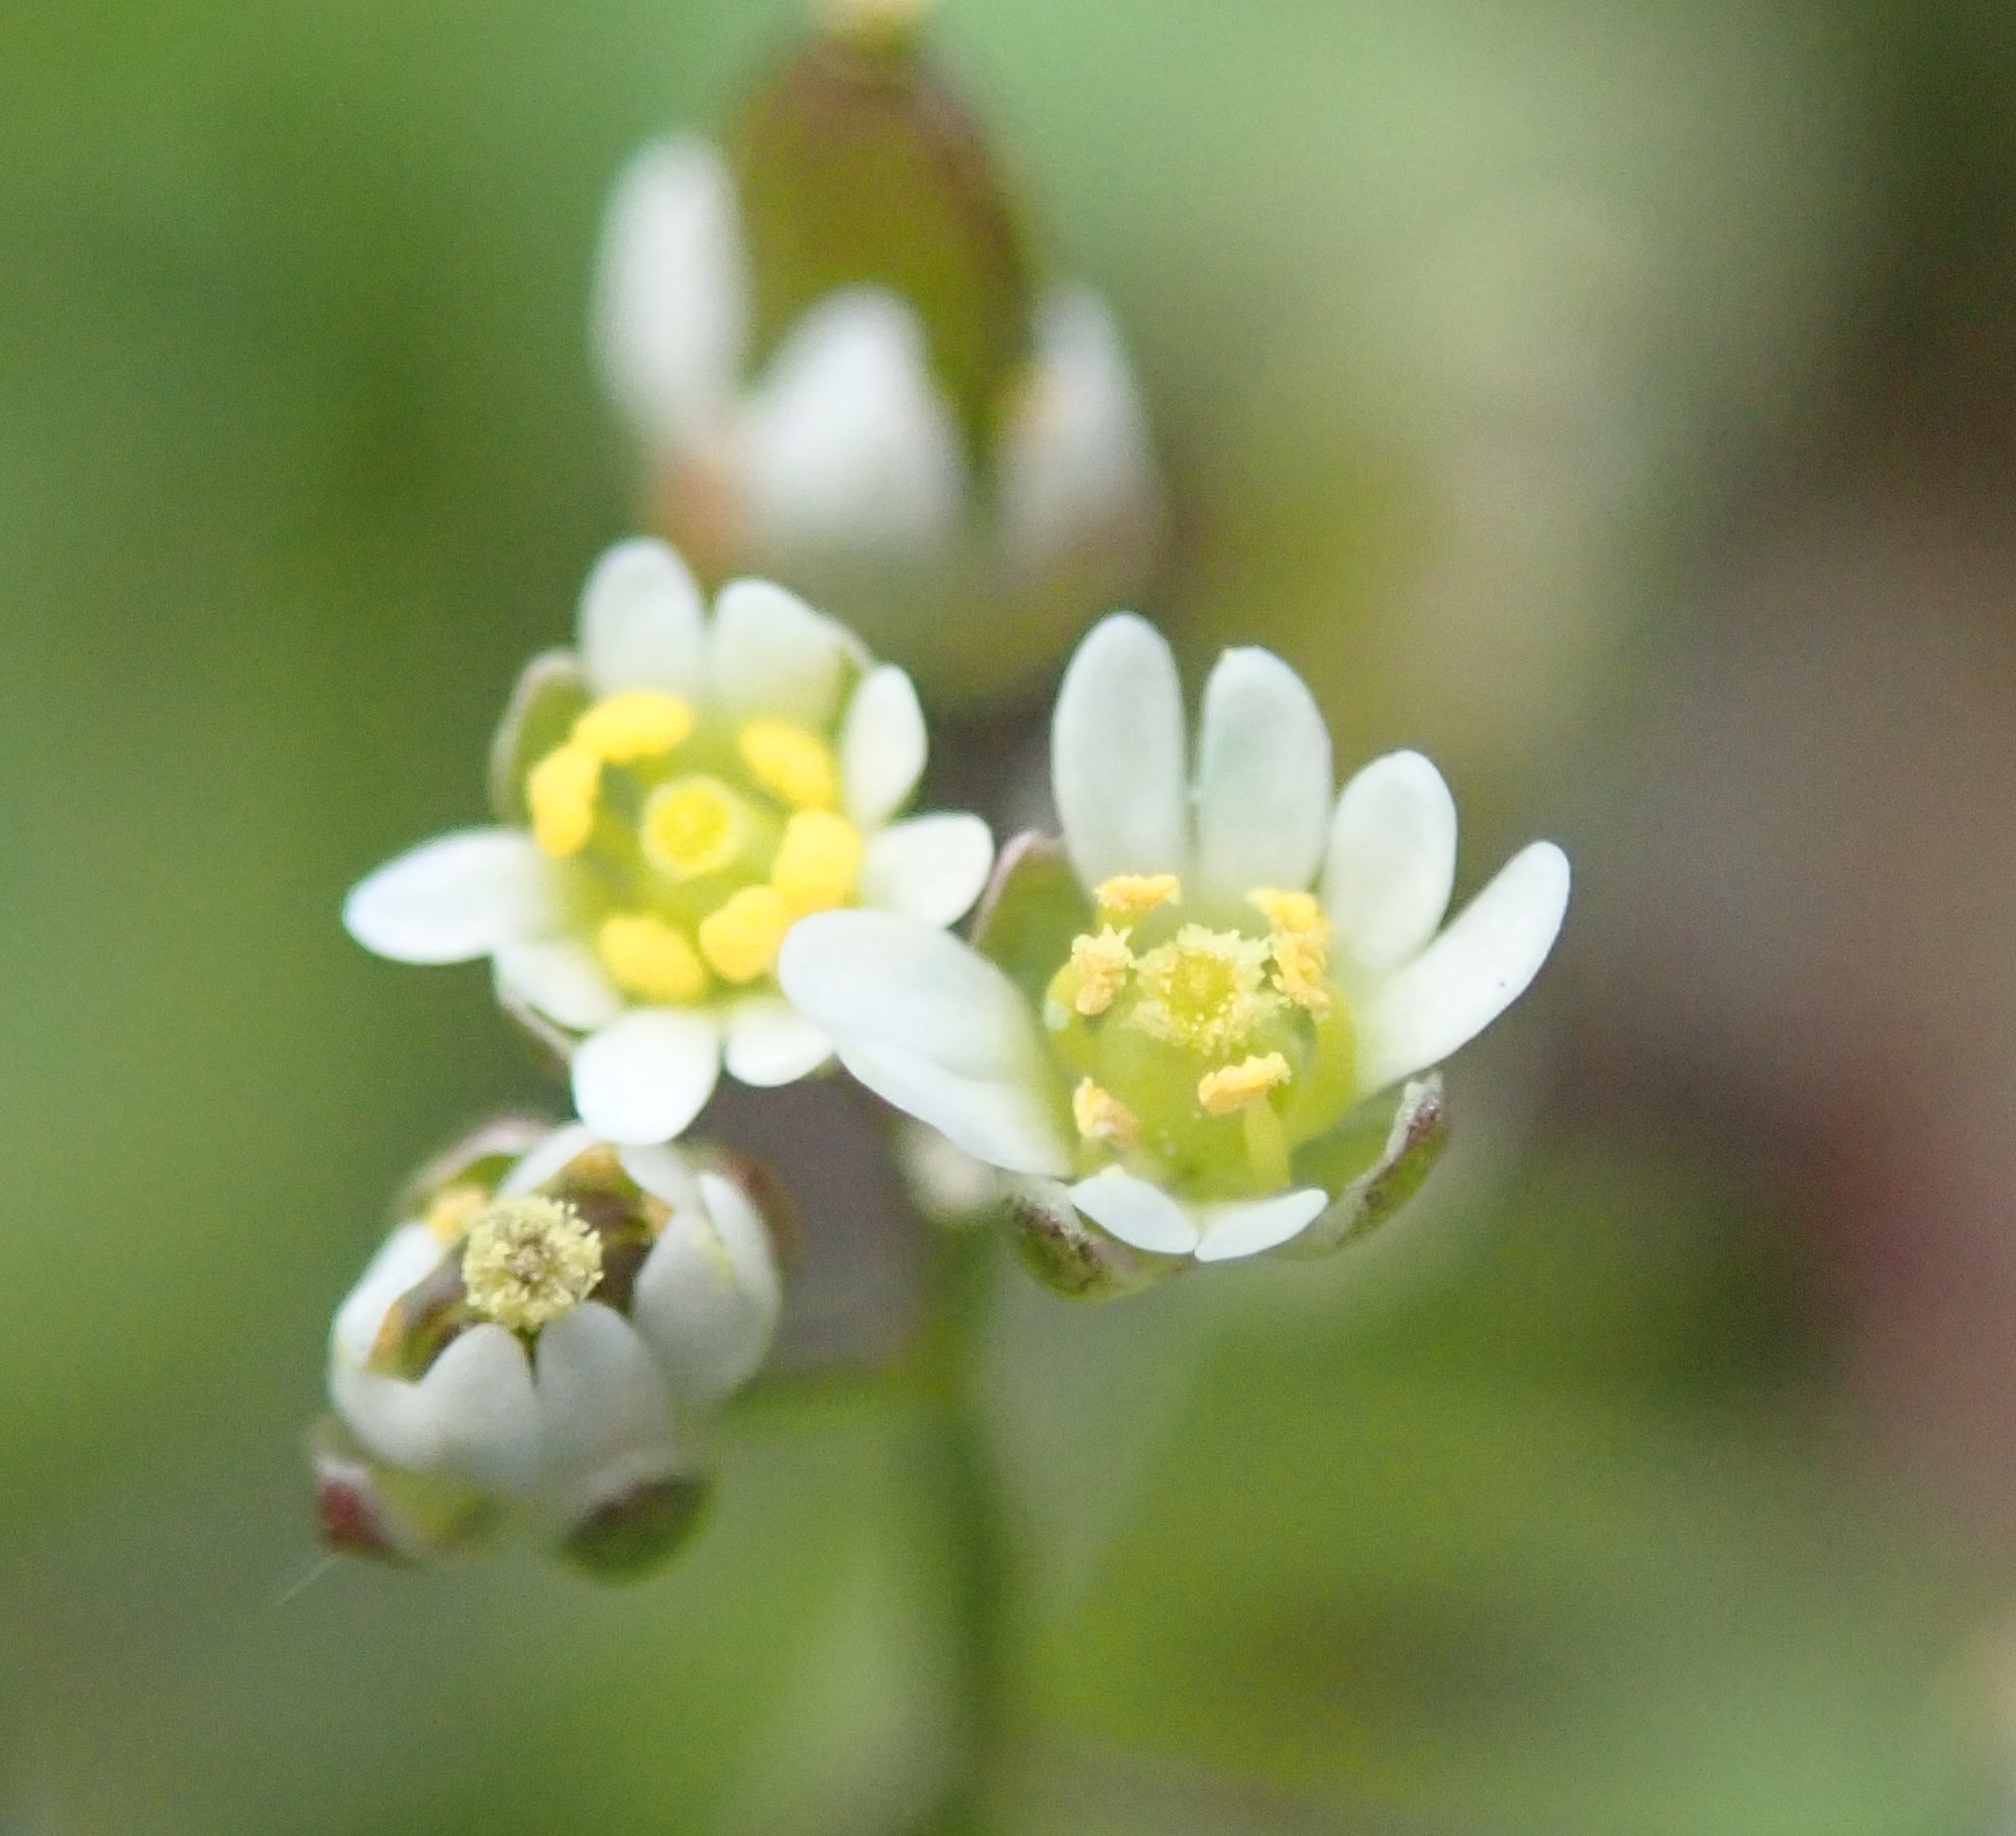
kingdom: Plantae
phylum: Tracheophyta
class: Magnoliopsida
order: Brassicales
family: Brassicaceae
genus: Draba
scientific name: Draba verna
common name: Spring draba
